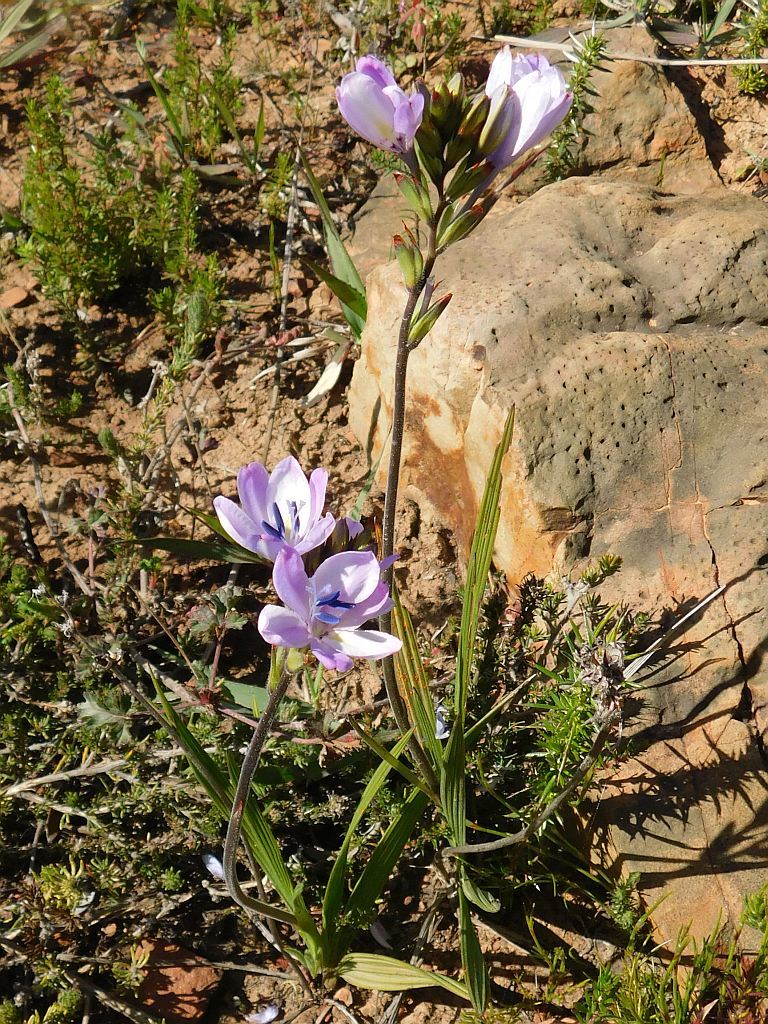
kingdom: Plantae
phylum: Tracheophyta
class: Liliopsida
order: Asparagales
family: Iridaceae
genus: Babiana
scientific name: Babiana nervosa
